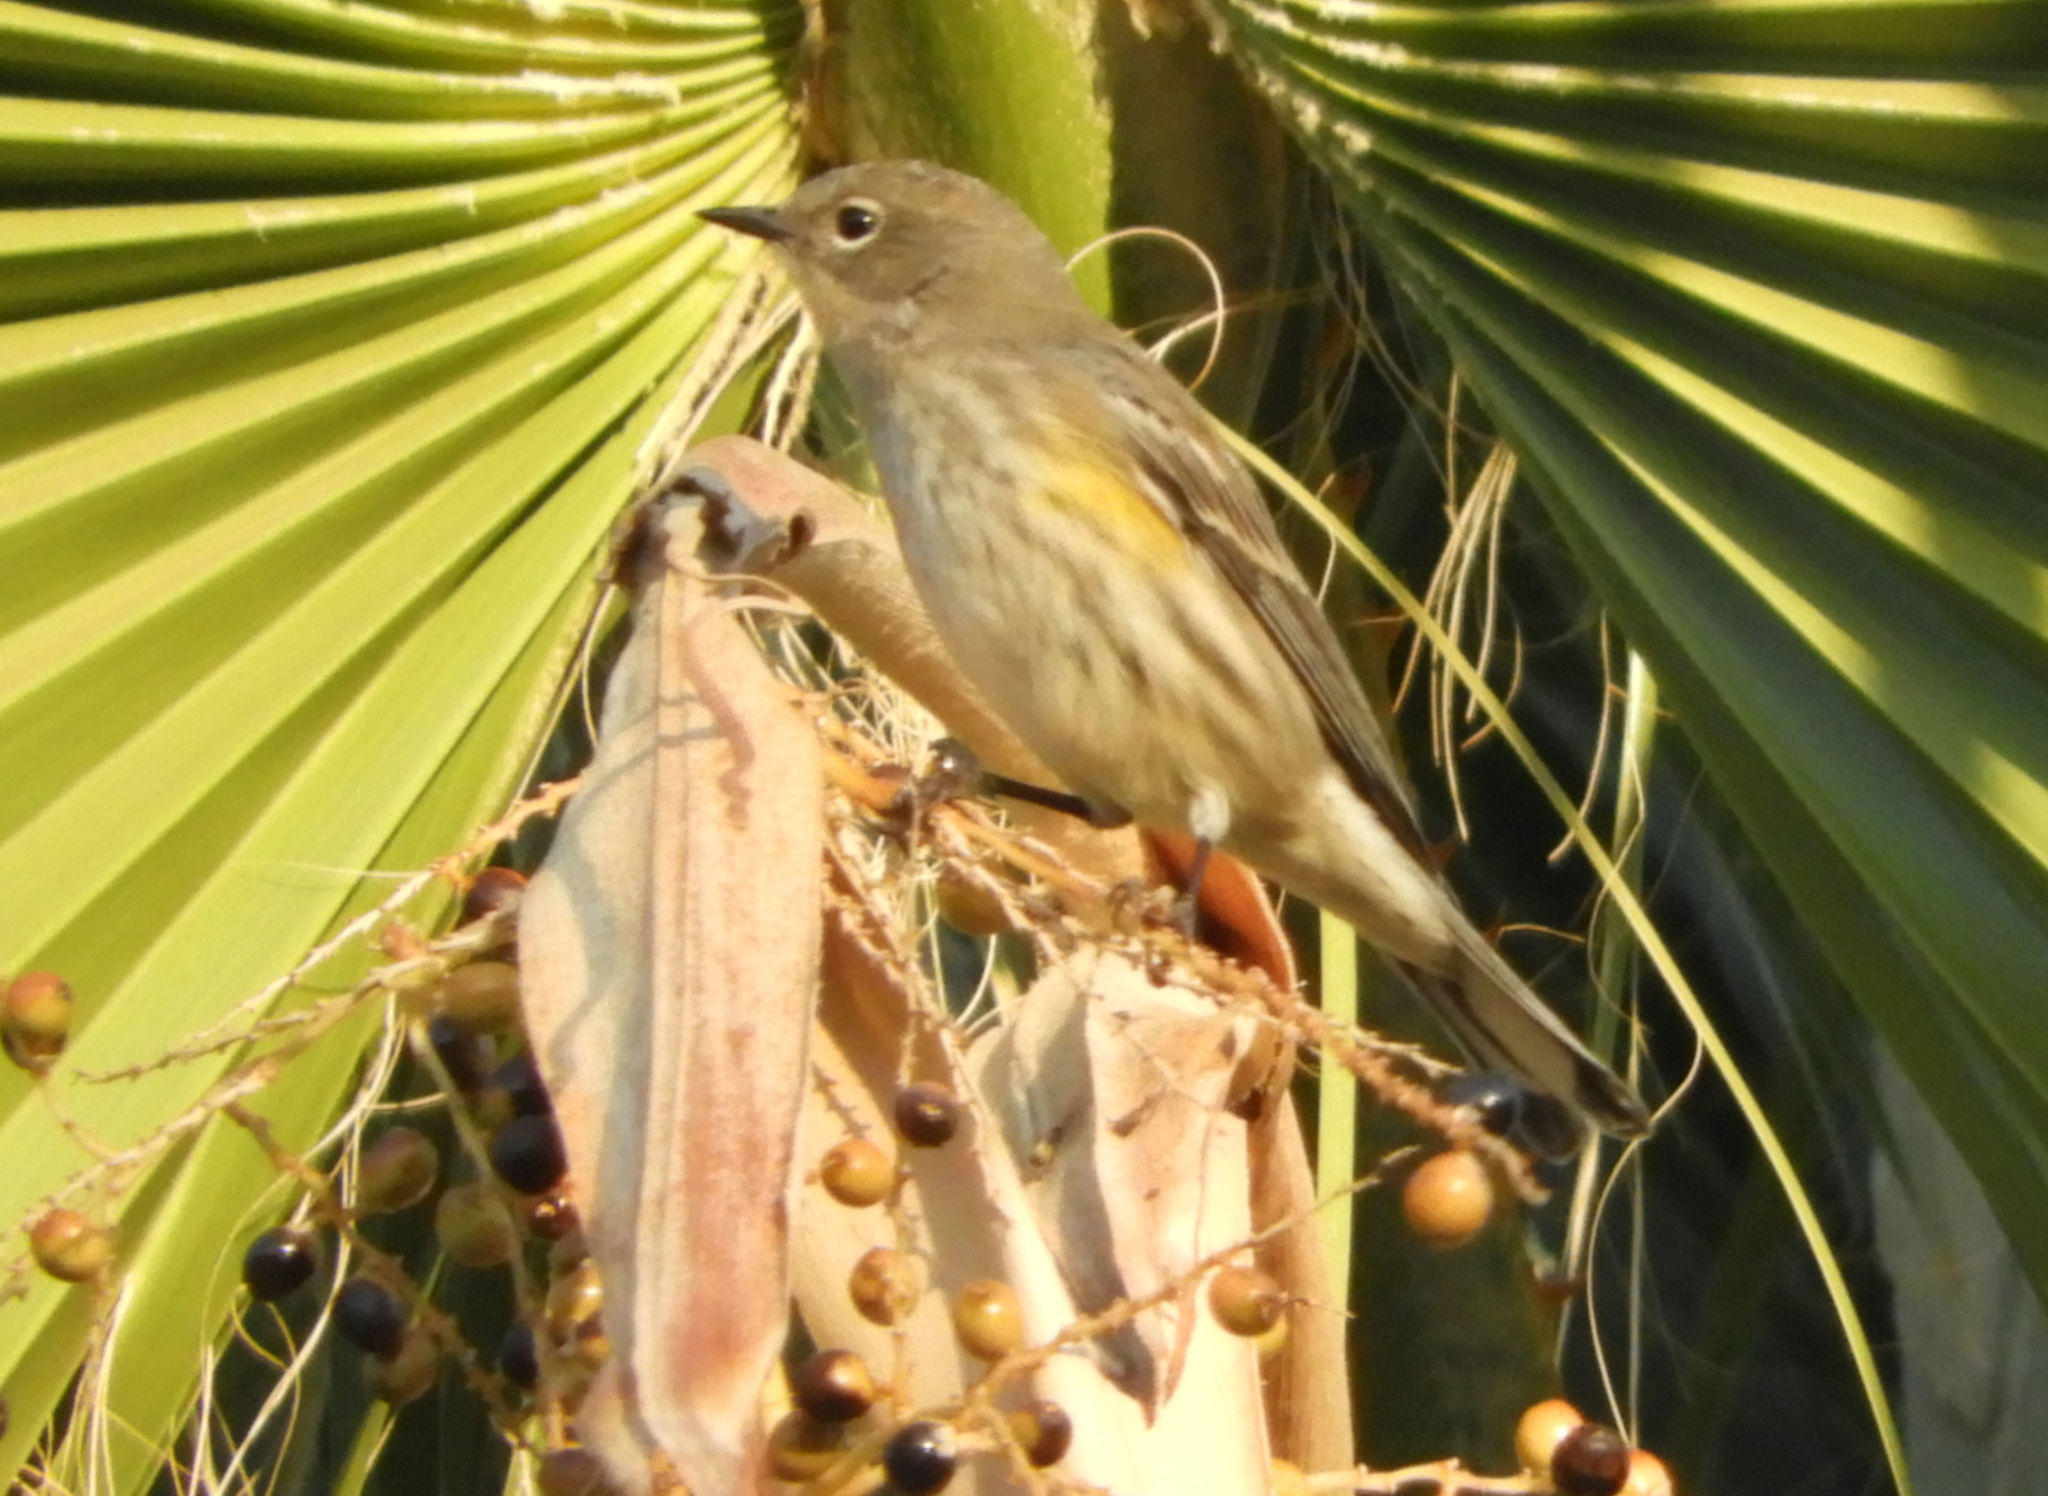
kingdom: Animalia
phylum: Chordata
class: Aves
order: Passeriformes
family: Parulidae
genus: Setophaga
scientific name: Setophaga coronata
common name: Myrtle warbler
